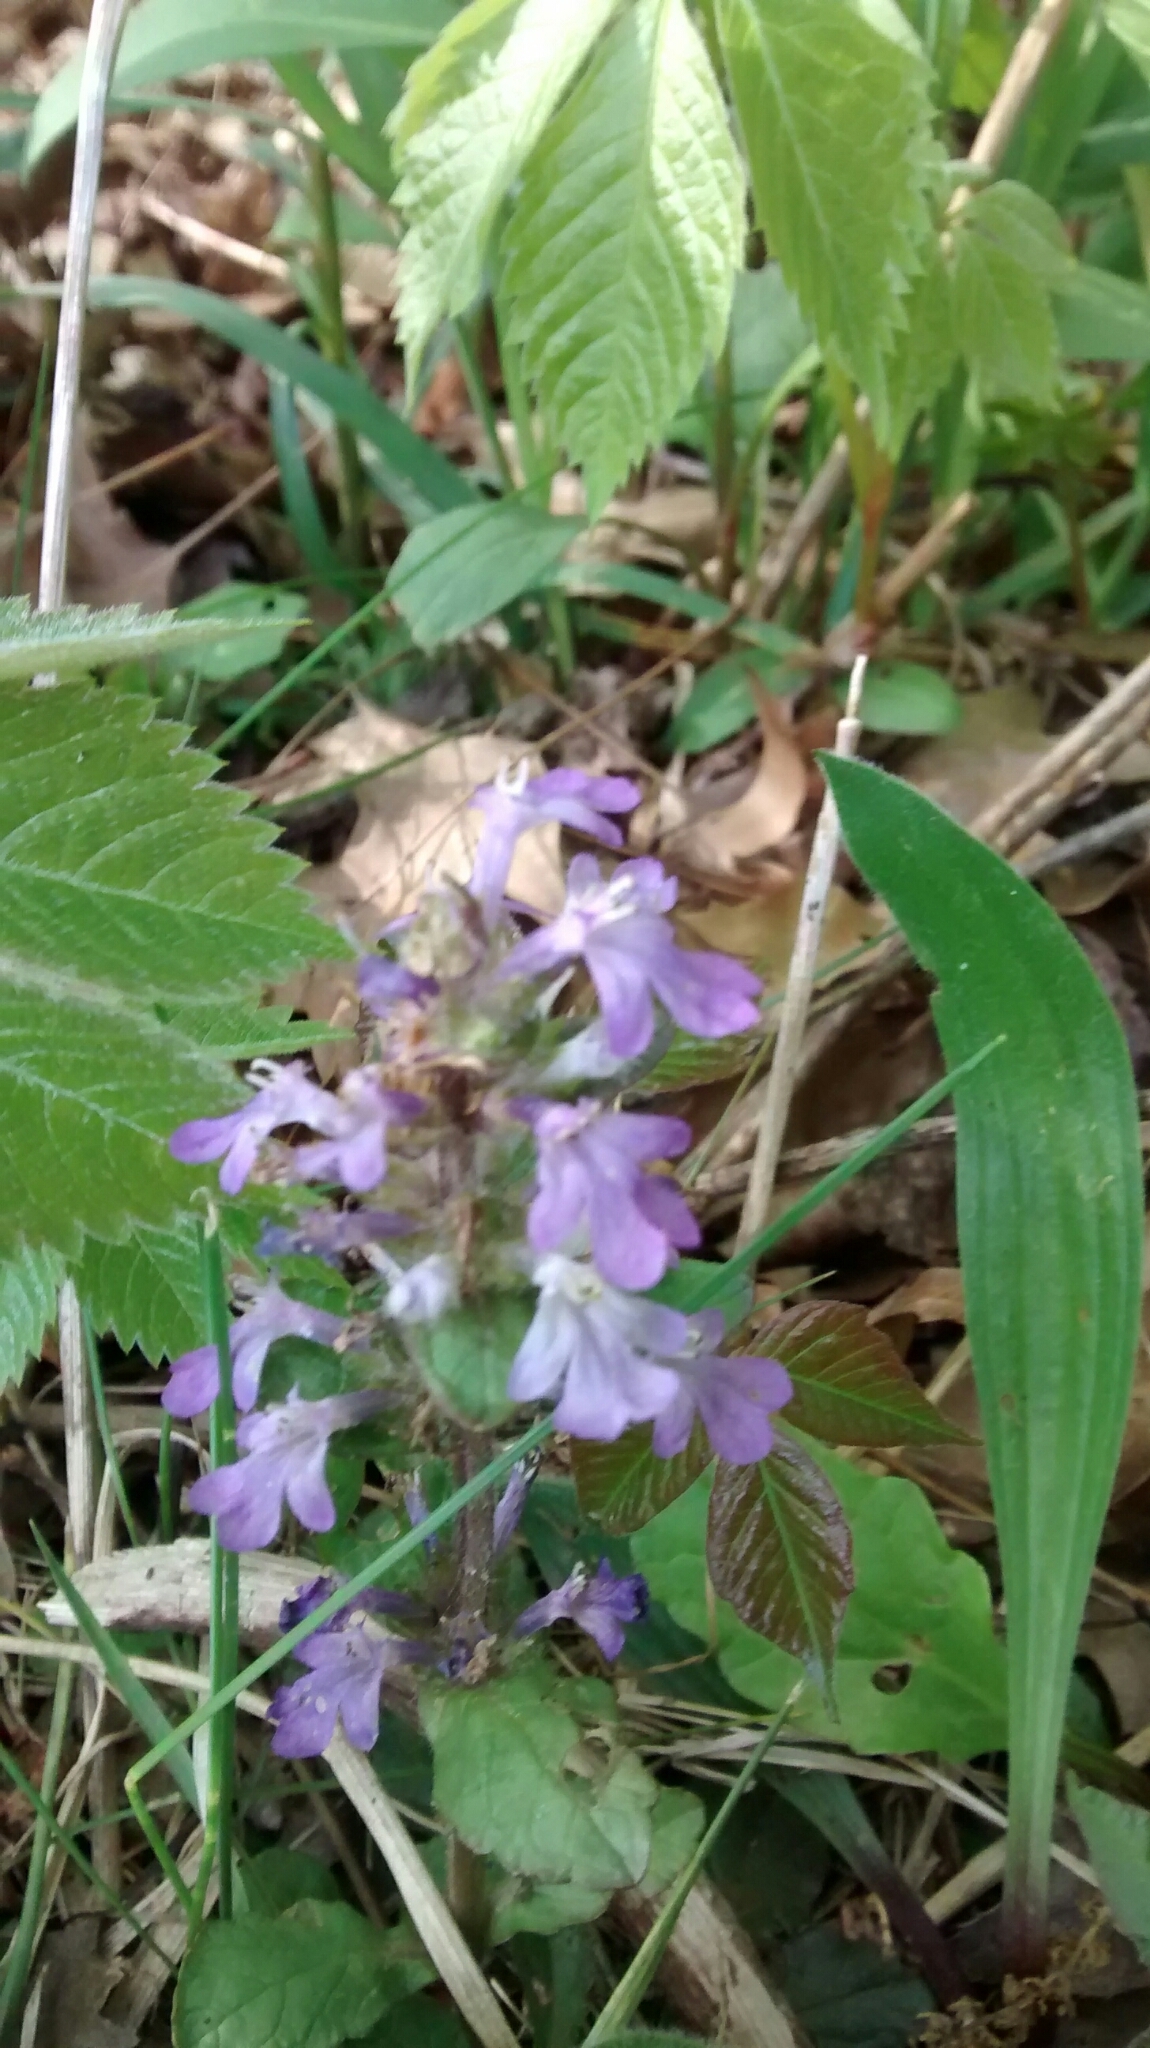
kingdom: Plantae
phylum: Tracheophyta
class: Magnoliopsida
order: Lamiales
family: Lamiaceae
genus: Ajuga
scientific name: Ajuga reptans
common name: Bugle
